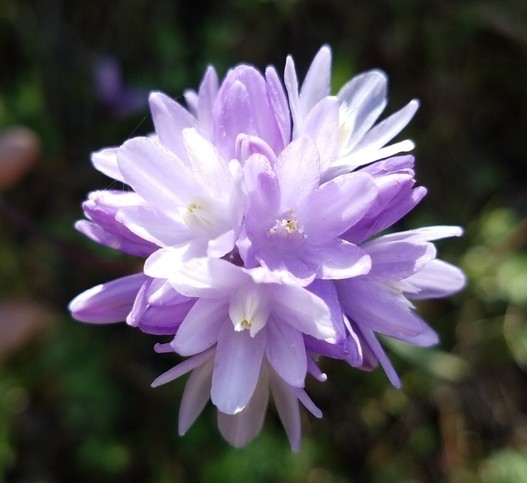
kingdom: Plantae
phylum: Tracheophyta
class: Liliopsida
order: Asparagales
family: Asparagaceae
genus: Dipterostemon
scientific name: Dipterostemon capitatus
